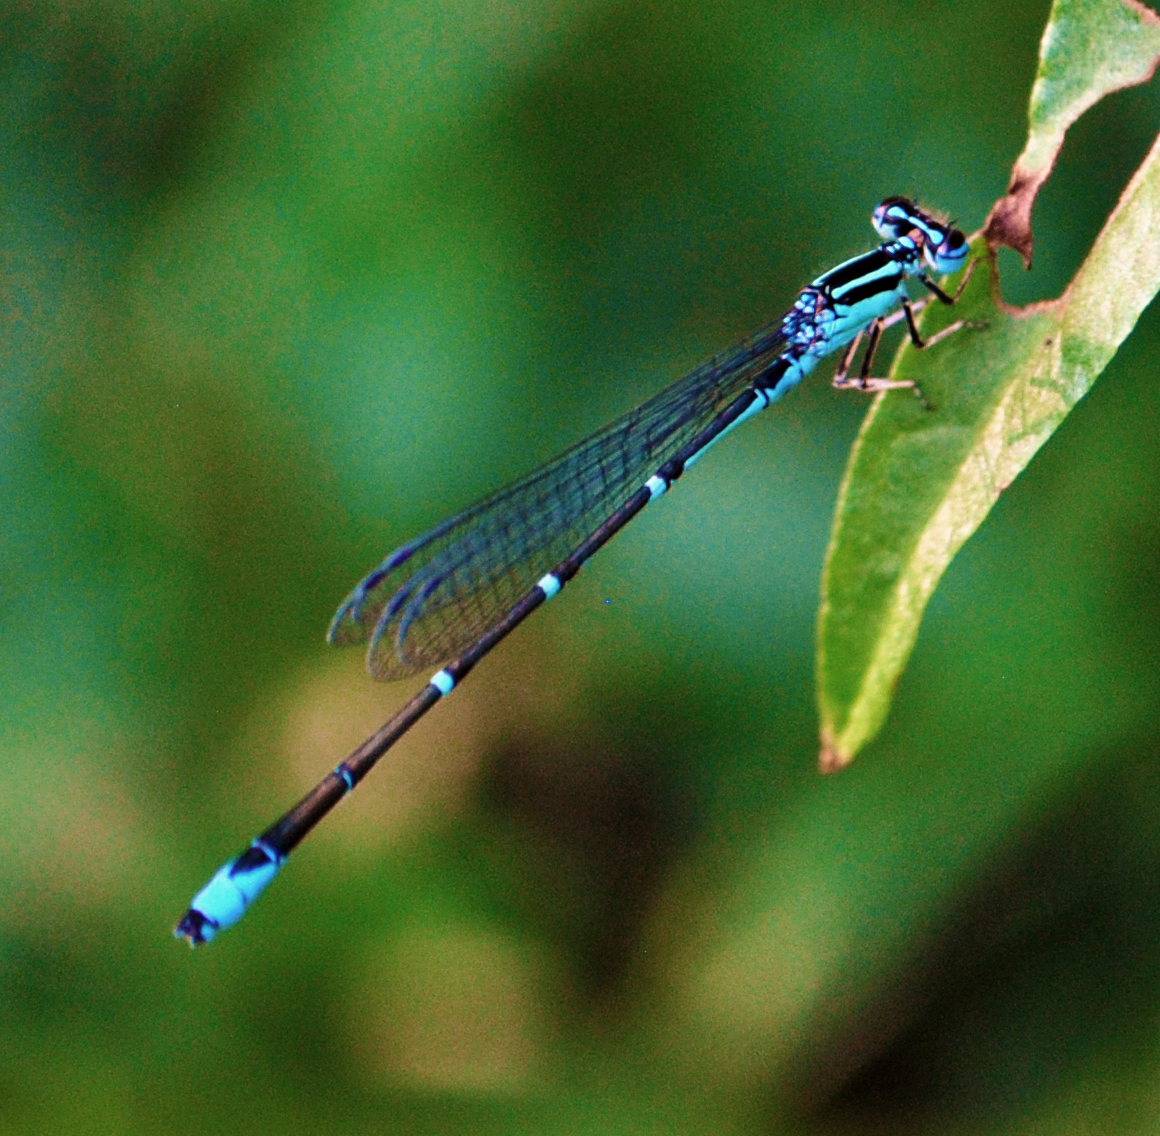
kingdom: Animalia
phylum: Arthropoda
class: Insecta
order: Odonata
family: Coenagrionidae
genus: Enallagma
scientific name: Enallagma exsulans
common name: Stream bluet
